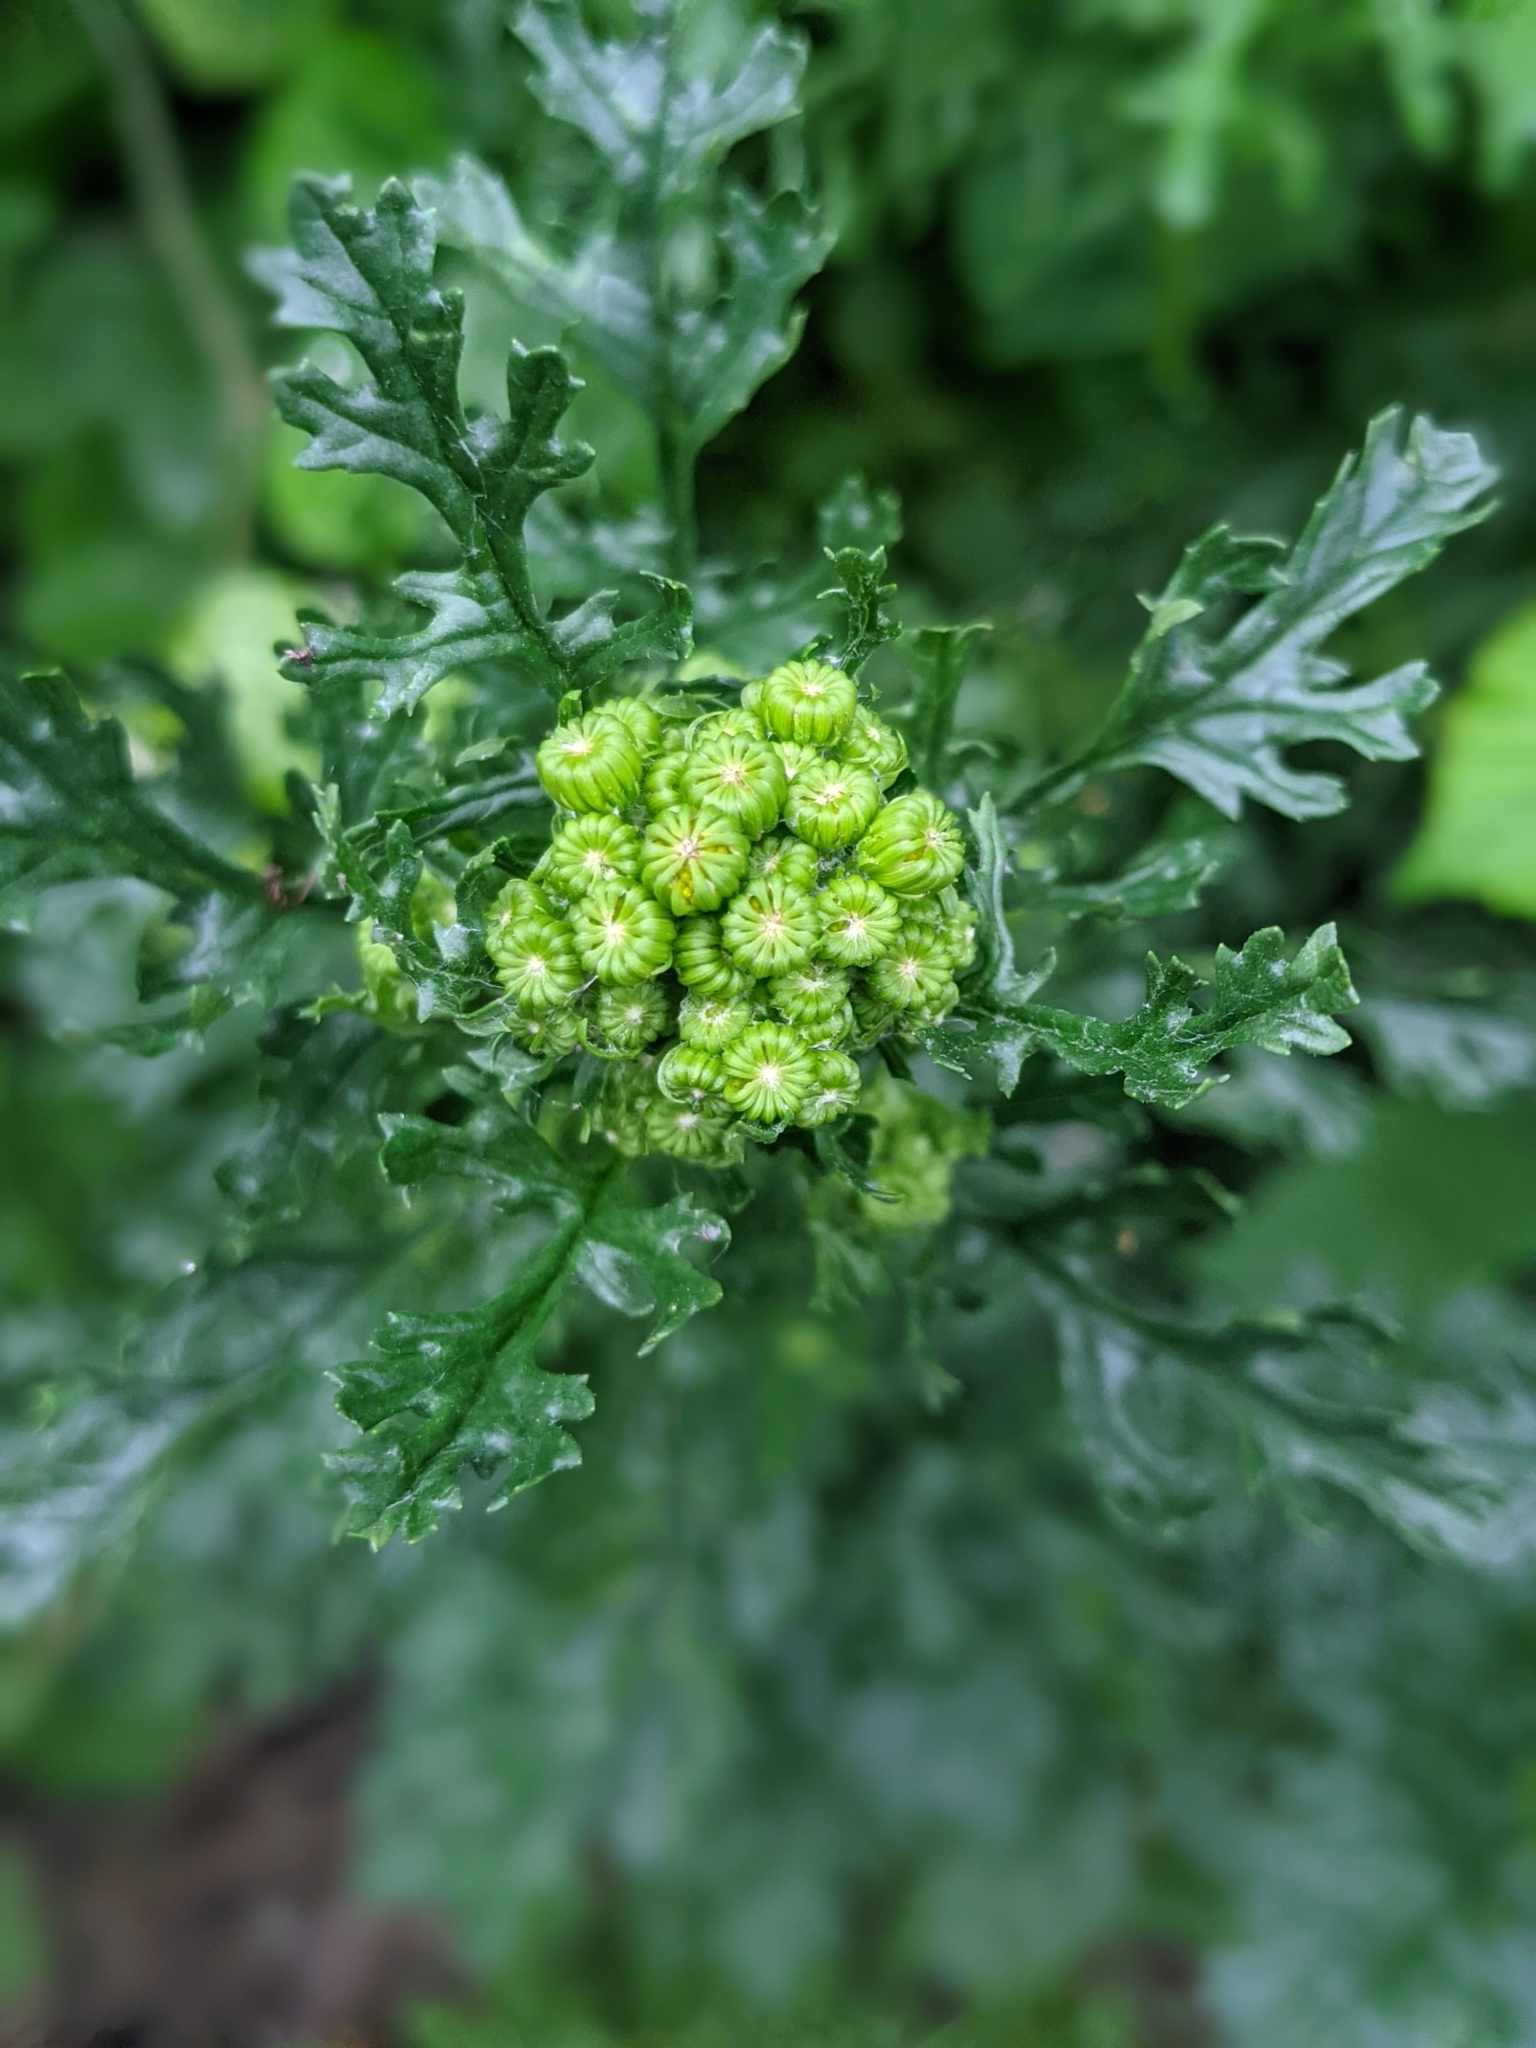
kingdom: Plantae
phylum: Tracheophyta
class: Magnoliopsida
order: Asterales
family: Asteraceae
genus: Jacobaea
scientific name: Jacobaea vulgaris
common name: Stinking willie
